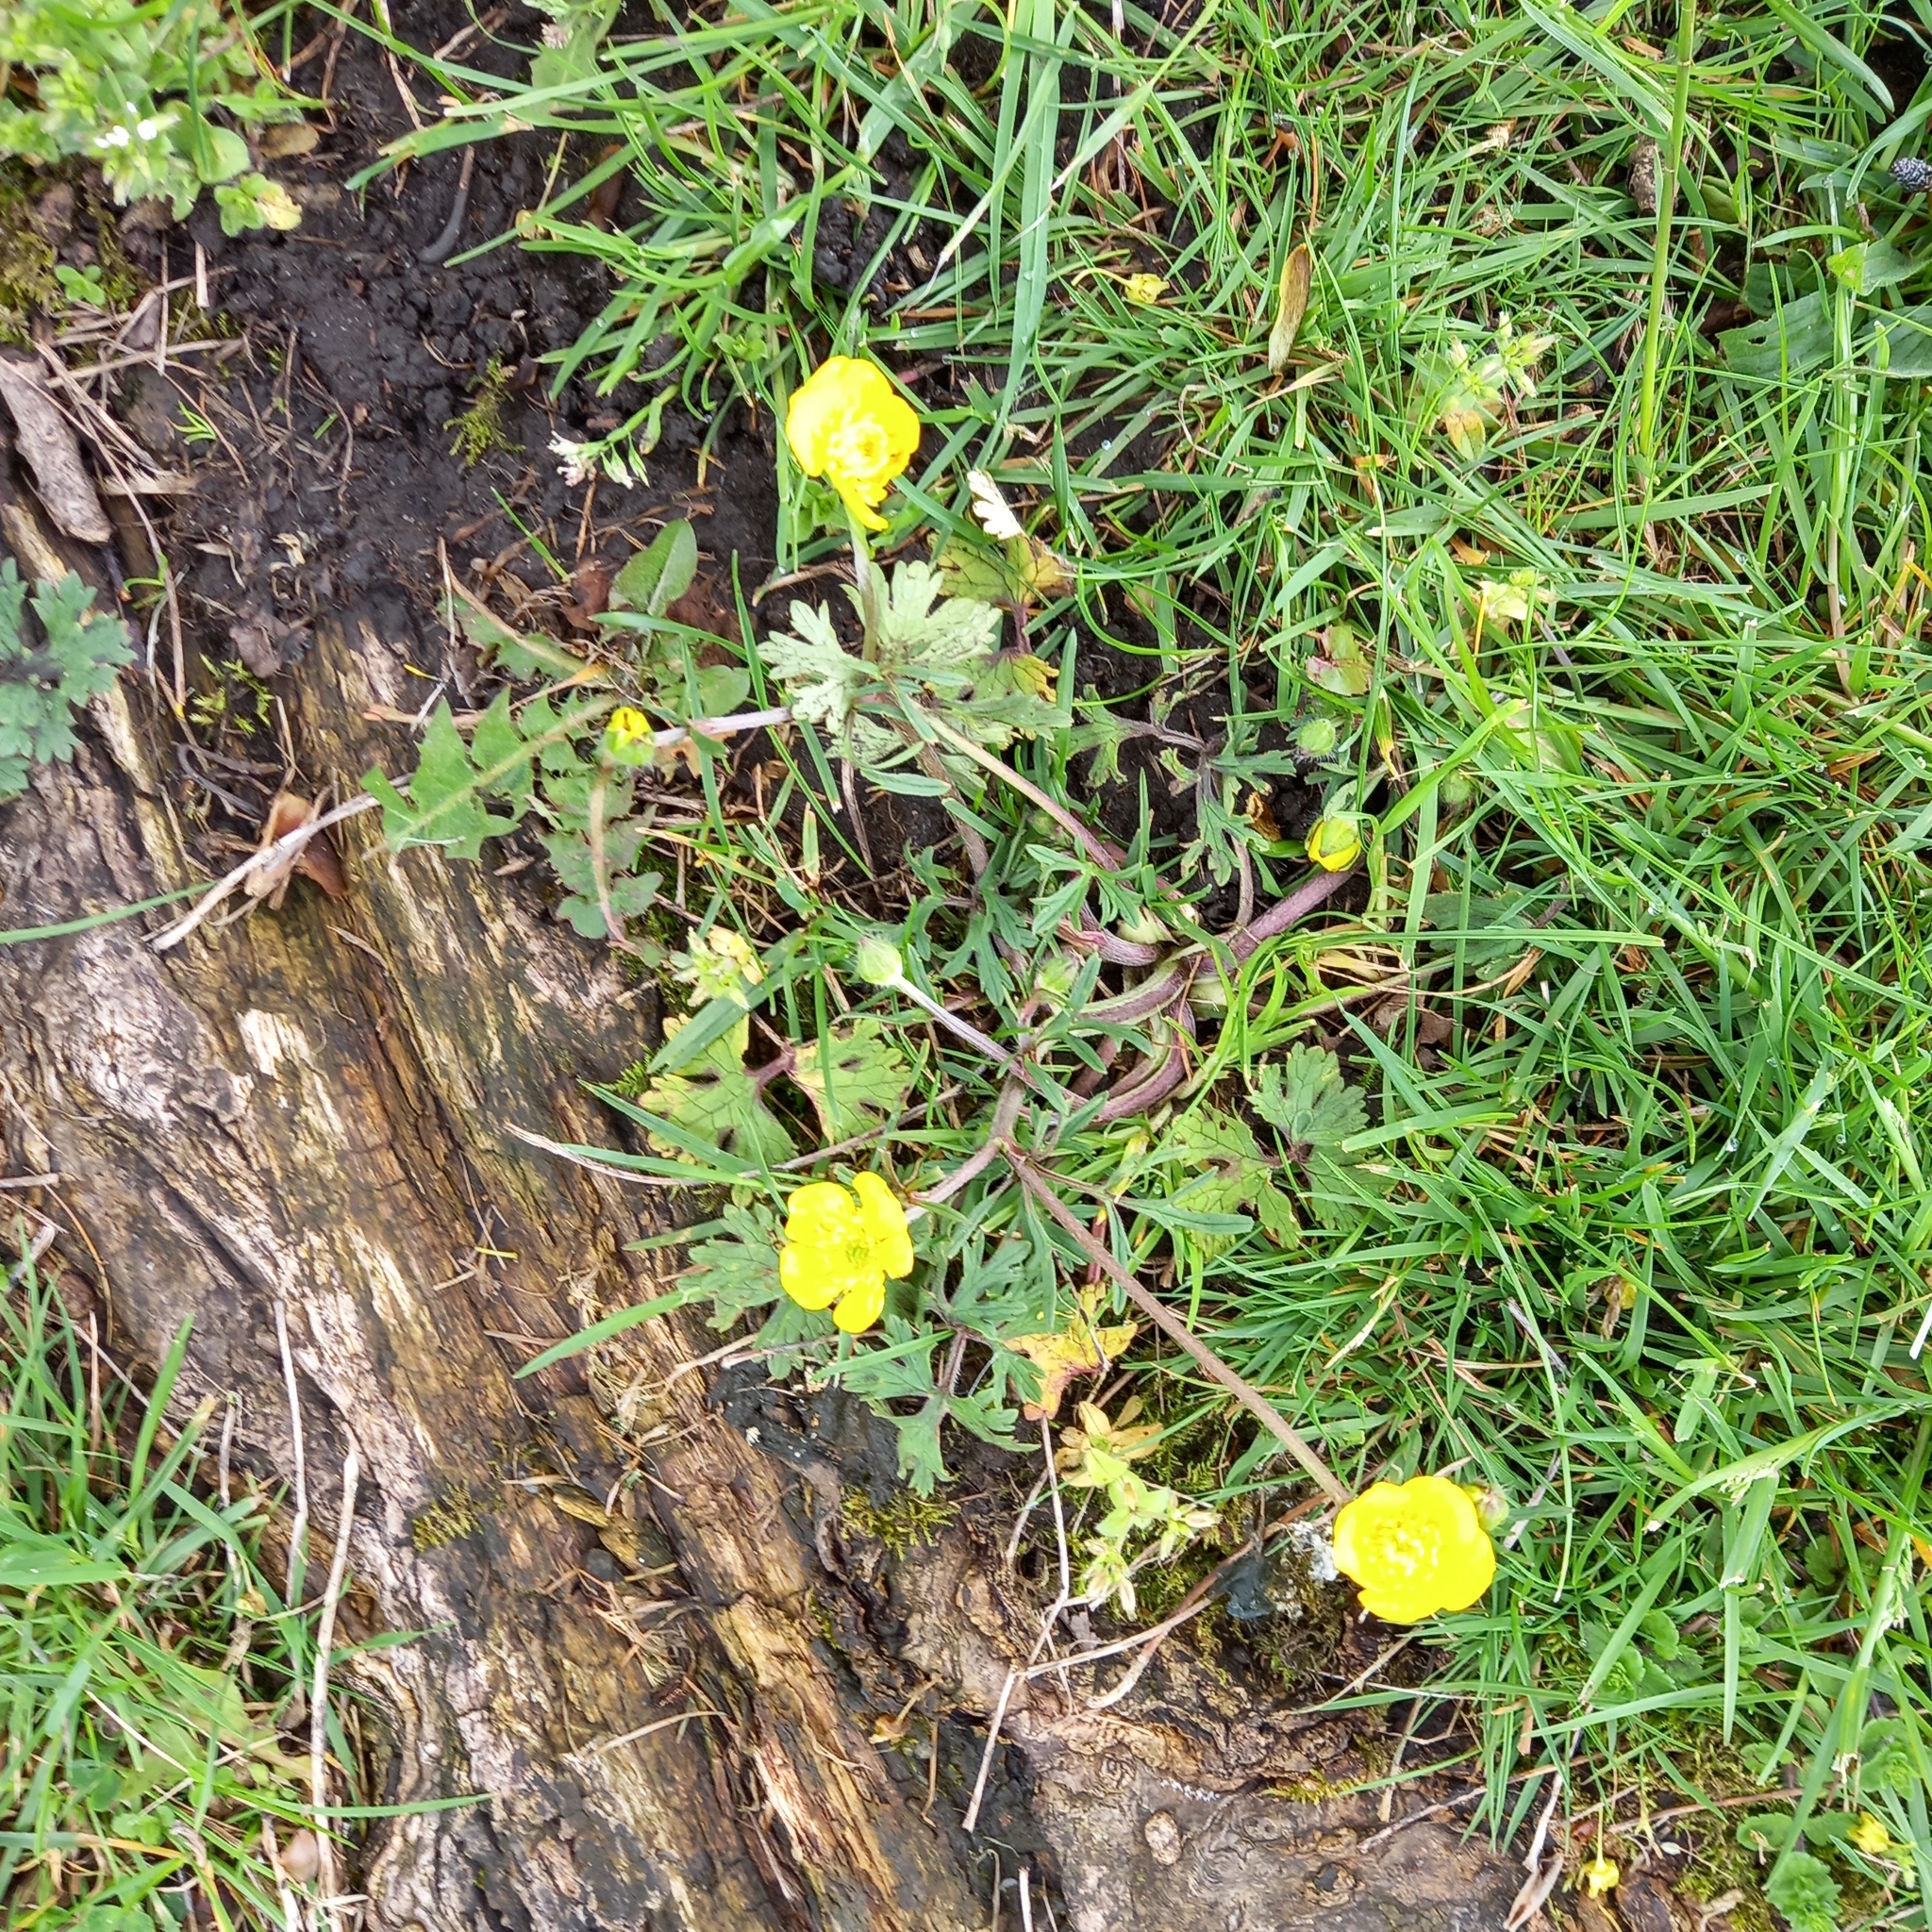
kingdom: Plantae
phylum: Tracheophyta
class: Magnoliopsida
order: Ranunculales
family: Ranunculaceae
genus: Ranunculus
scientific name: Ranunculus bulbosus
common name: Bulbous buttercup
